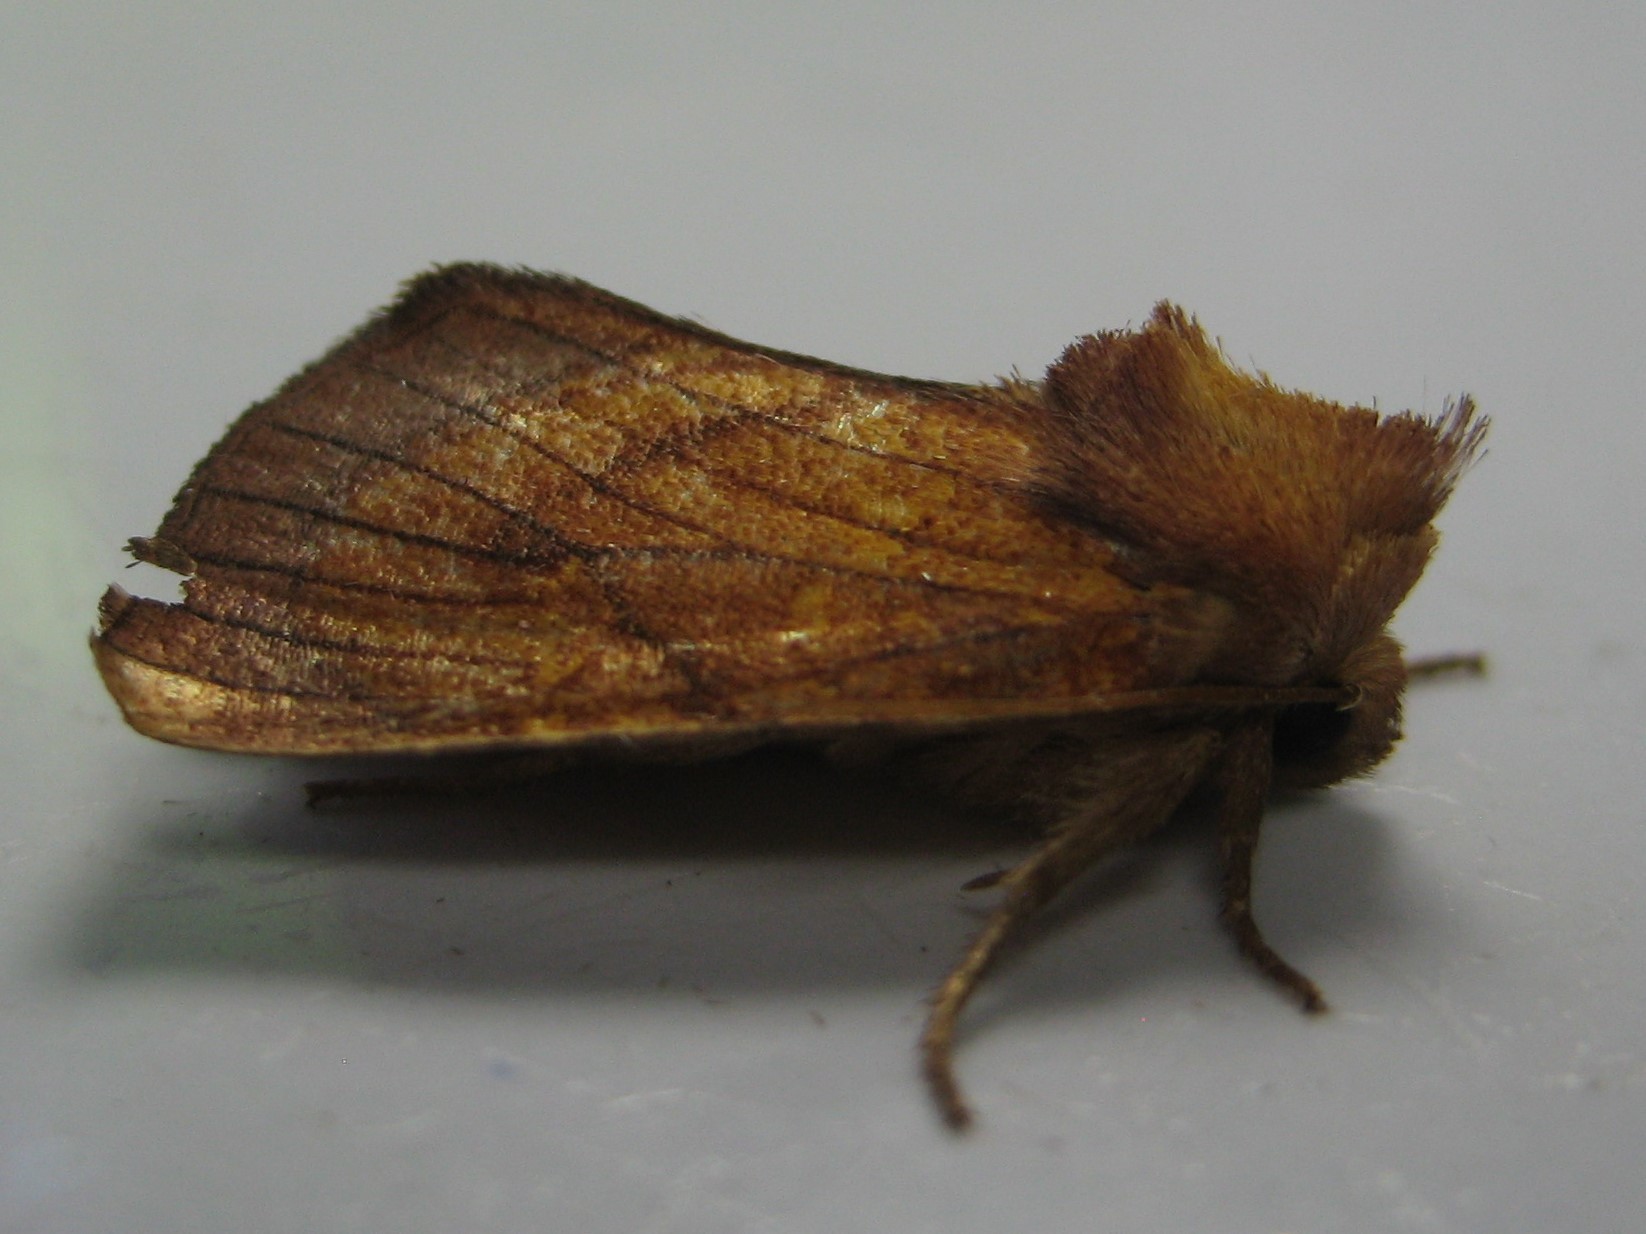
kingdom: Animalia
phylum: Arthropoda
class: Insecta
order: Lepidoptera
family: Noctuidae
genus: Papaipema
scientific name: Papaipema inquaesita
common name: Sensitive fern borer moth
